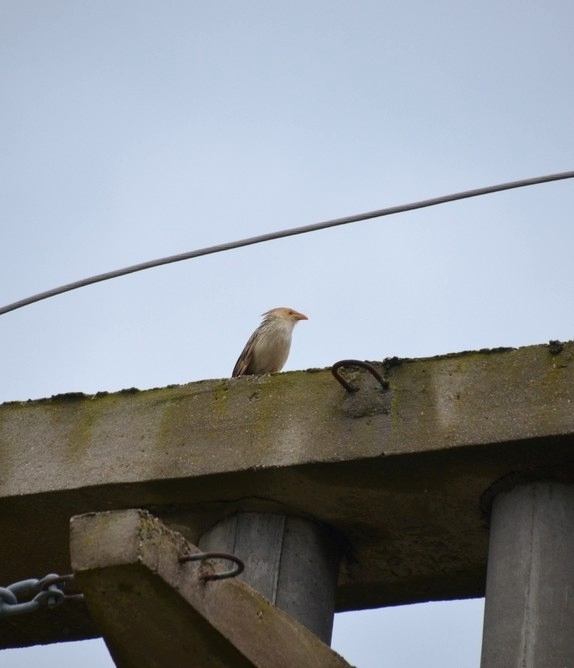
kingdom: Animalia
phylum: Chordata
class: Aves
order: Cuculiformes
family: Cuculidae
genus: Guira
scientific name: Guira guira
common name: Guira cuckoo
